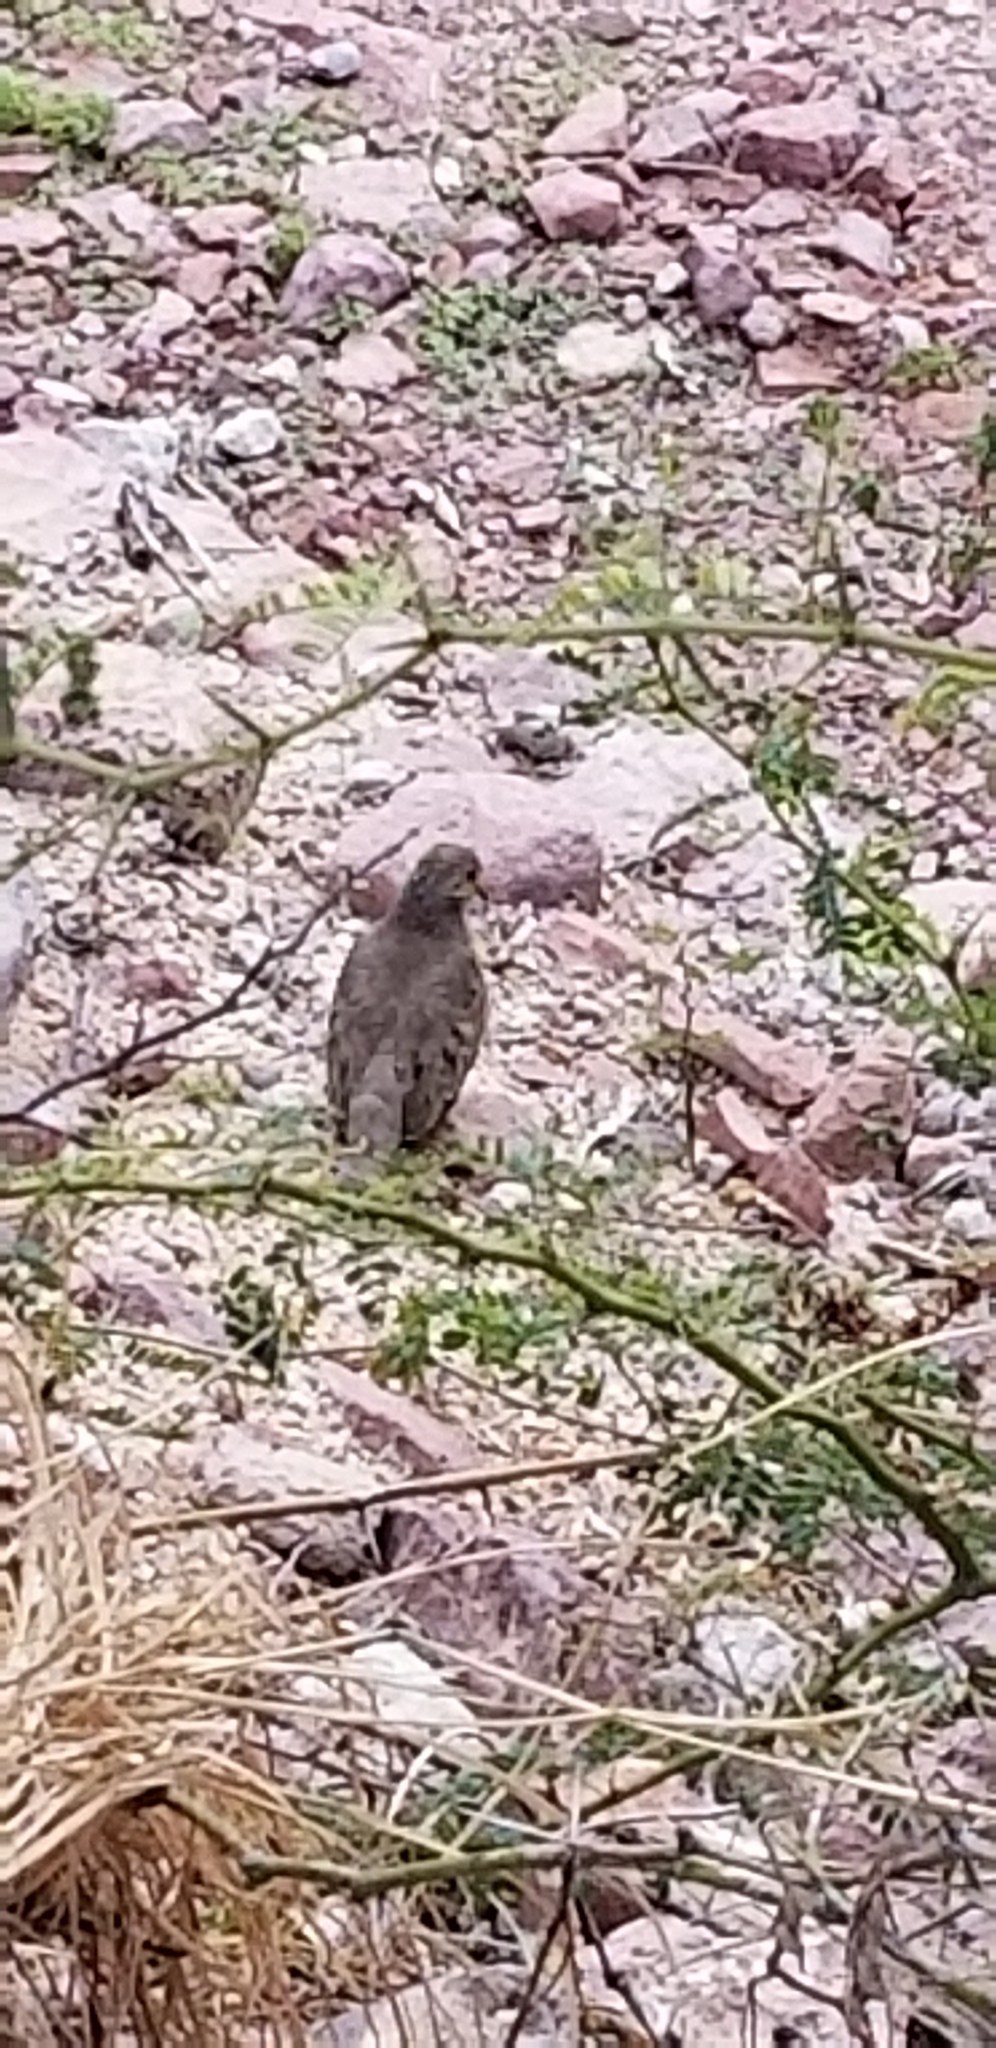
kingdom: Animalia
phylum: Chordata
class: Aves
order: Columbiformes
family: Columbidae
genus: Zenaida
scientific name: Zenaida macroura
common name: Mourning dove
